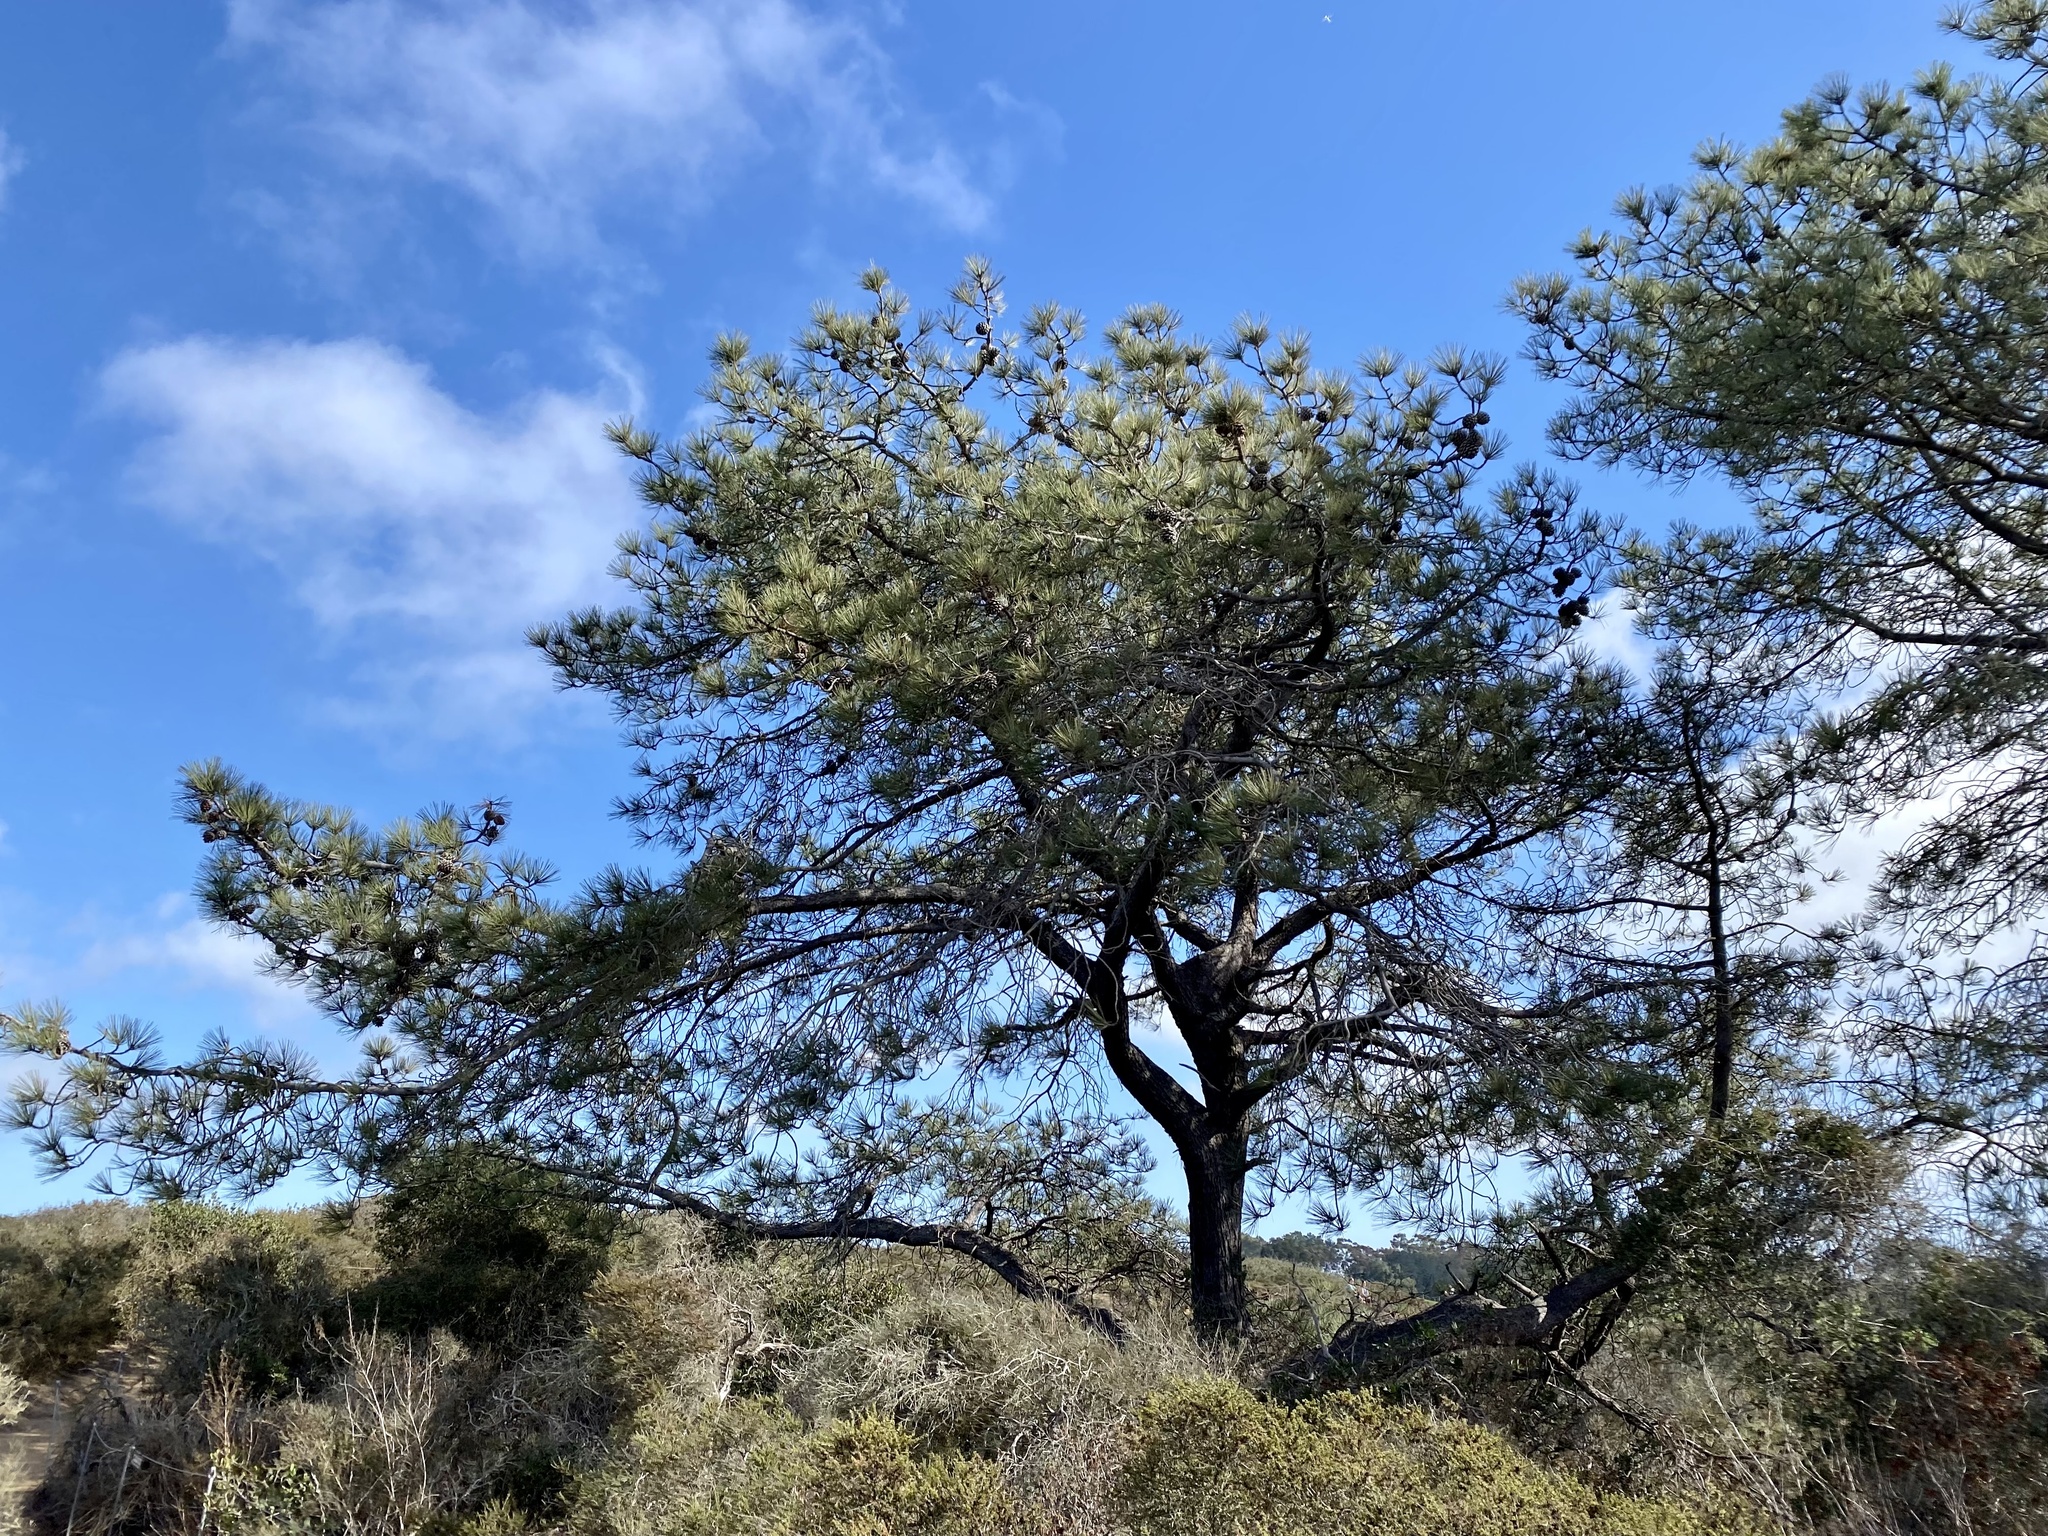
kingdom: Plantae
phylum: Tracheophyta
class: Pinopsida
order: Pinales
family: Pinaceae
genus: Pinus
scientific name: Pinus torreyana
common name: Torrey pine
